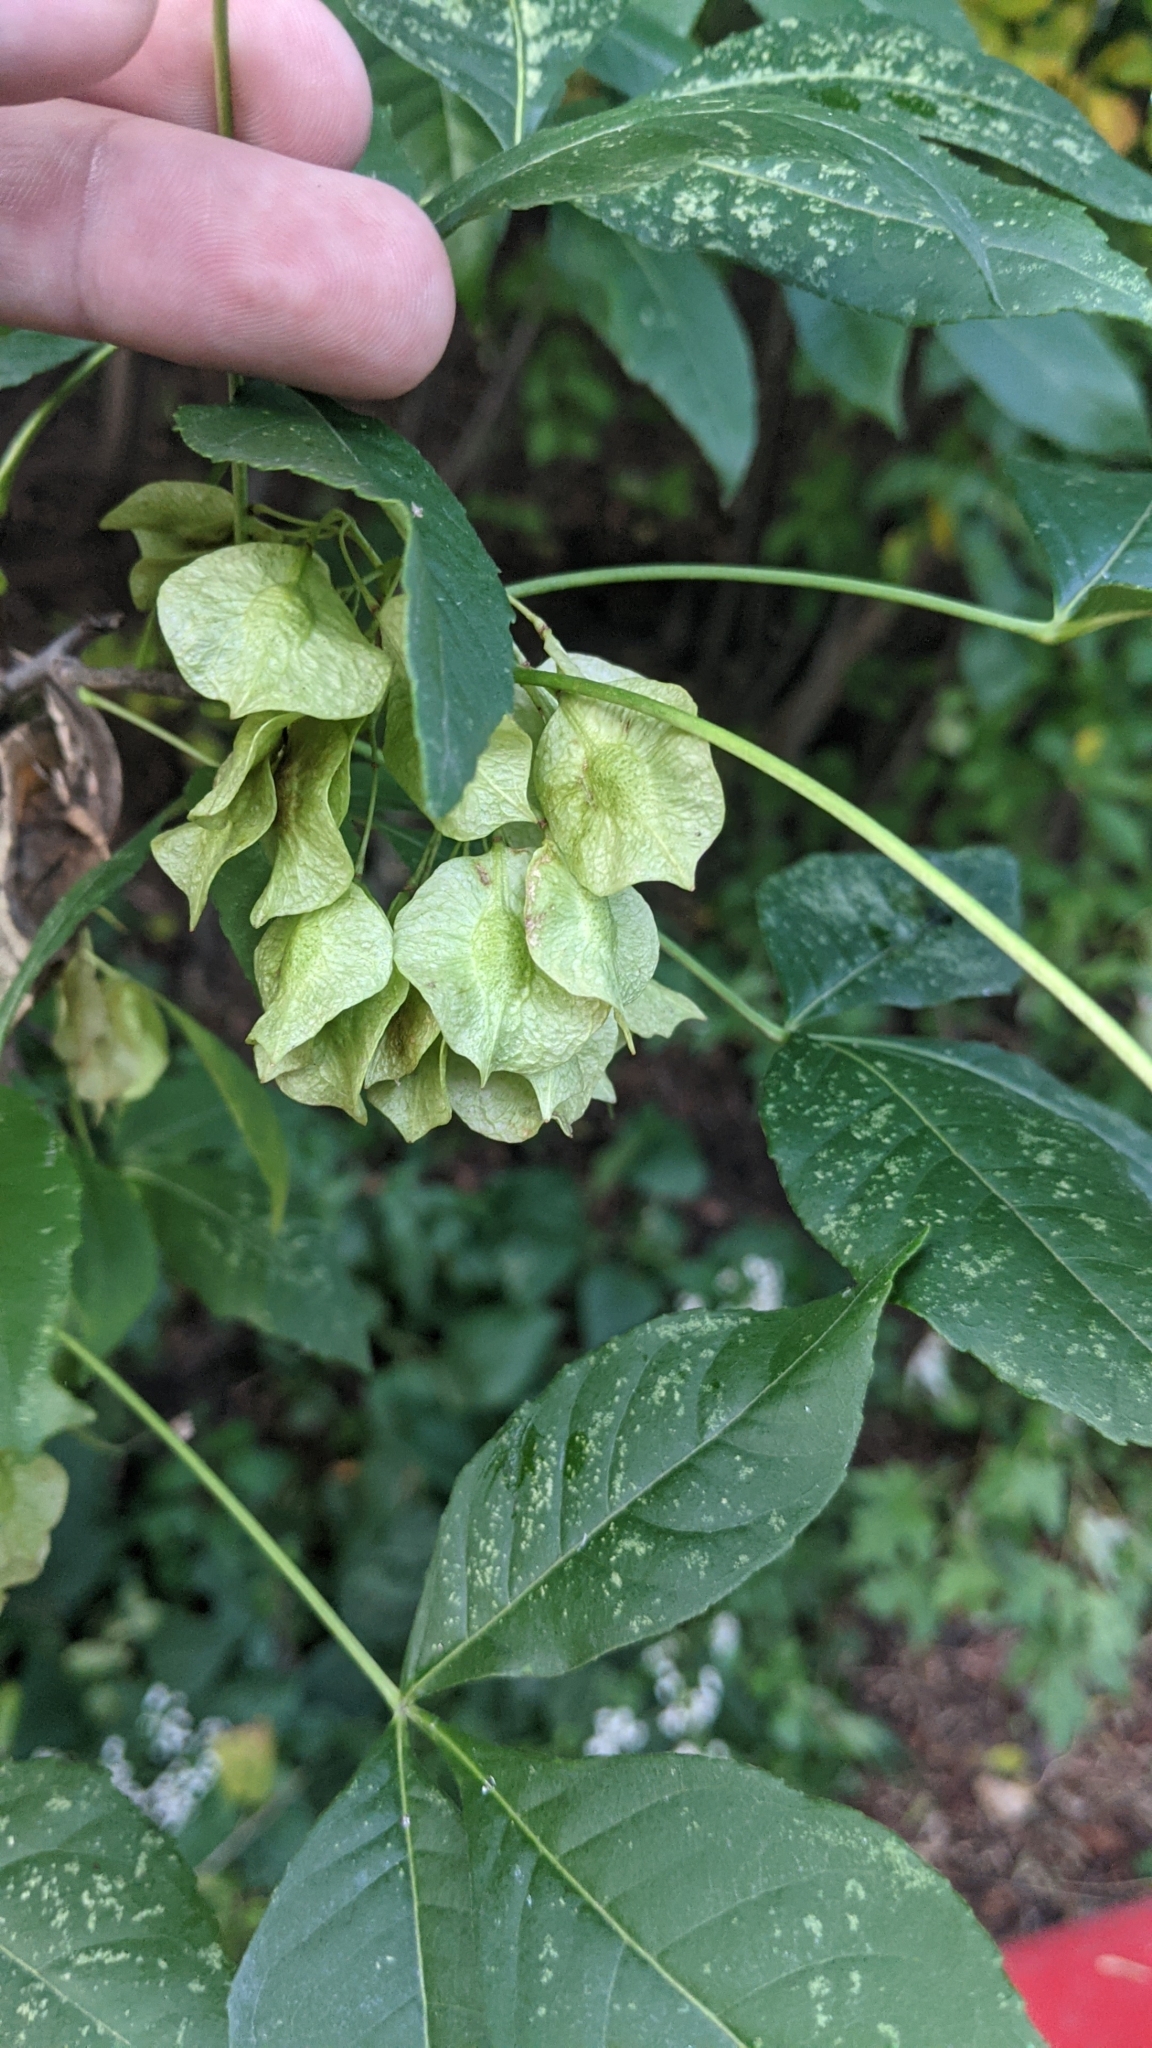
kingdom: Plantae
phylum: Tracheophyta
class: Magnoliopsida
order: Sapindales
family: Rutaceae
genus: Ptelea
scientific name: Ptelea trifoliata
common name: Common hop-tree
